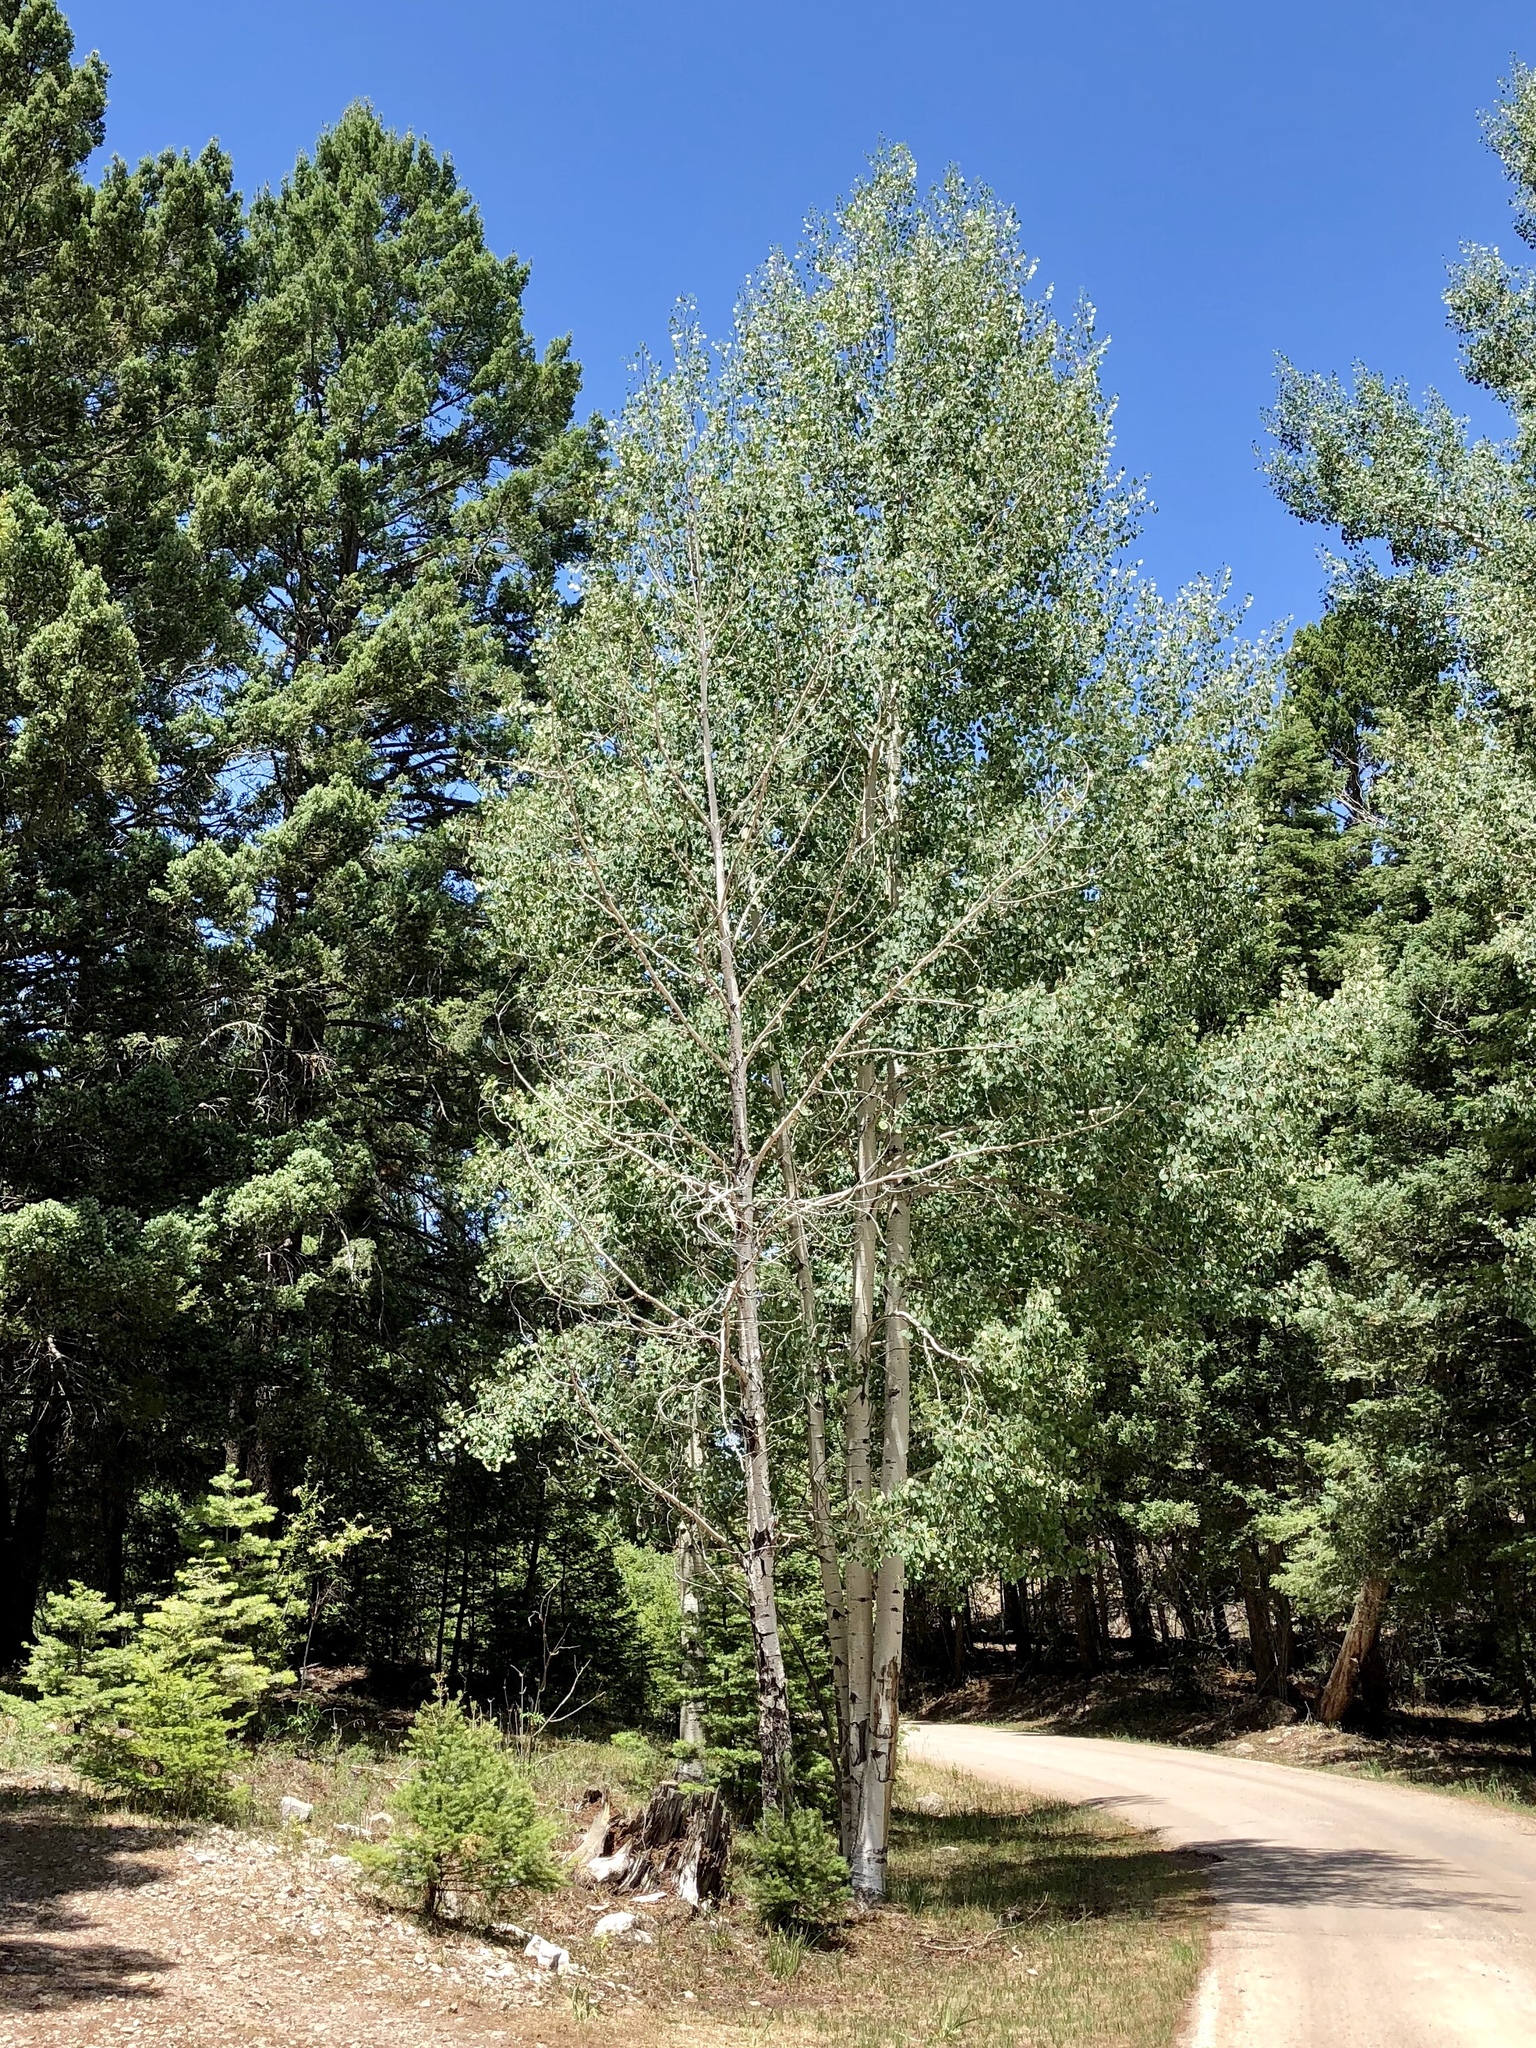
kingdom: Plantae
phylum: Tracheophyta
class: Magnoliopsida
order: Malpighiales
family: Salicaceae
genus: Populus
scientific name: Populus tremuloides
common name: Quaking aspen
